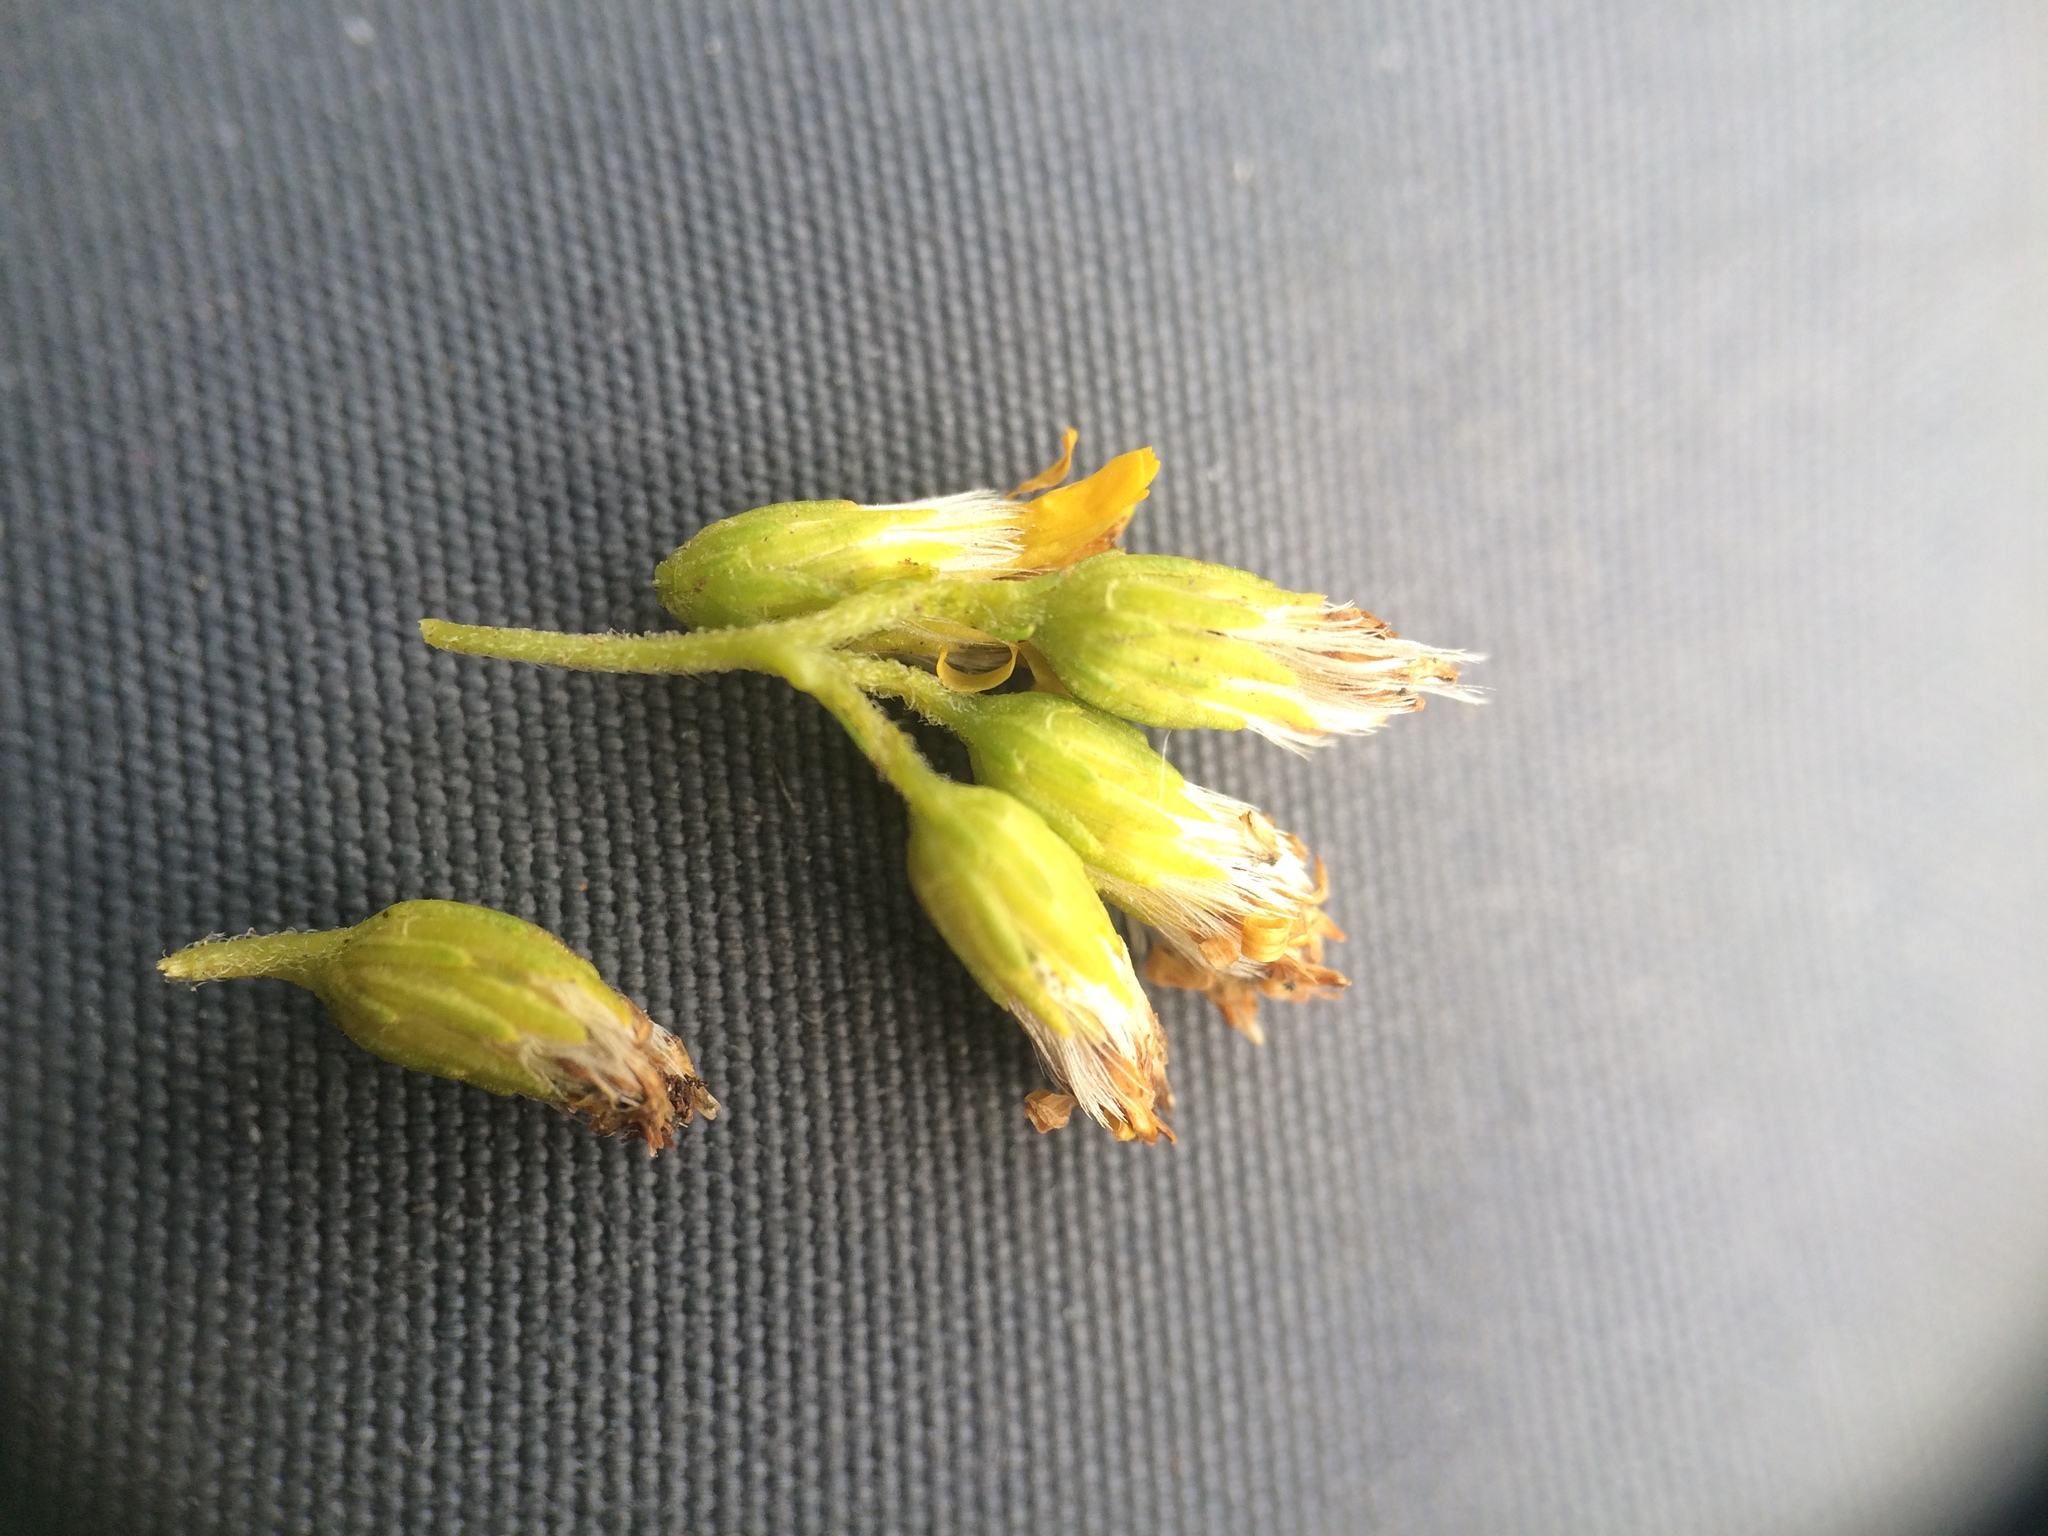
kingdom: Plantae
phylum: Tracheophyta
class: Magnoliopsida
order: Asterales
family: Asteraceae
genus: Solidago
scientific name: Solidago gigantea
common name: Giant goldenrod
